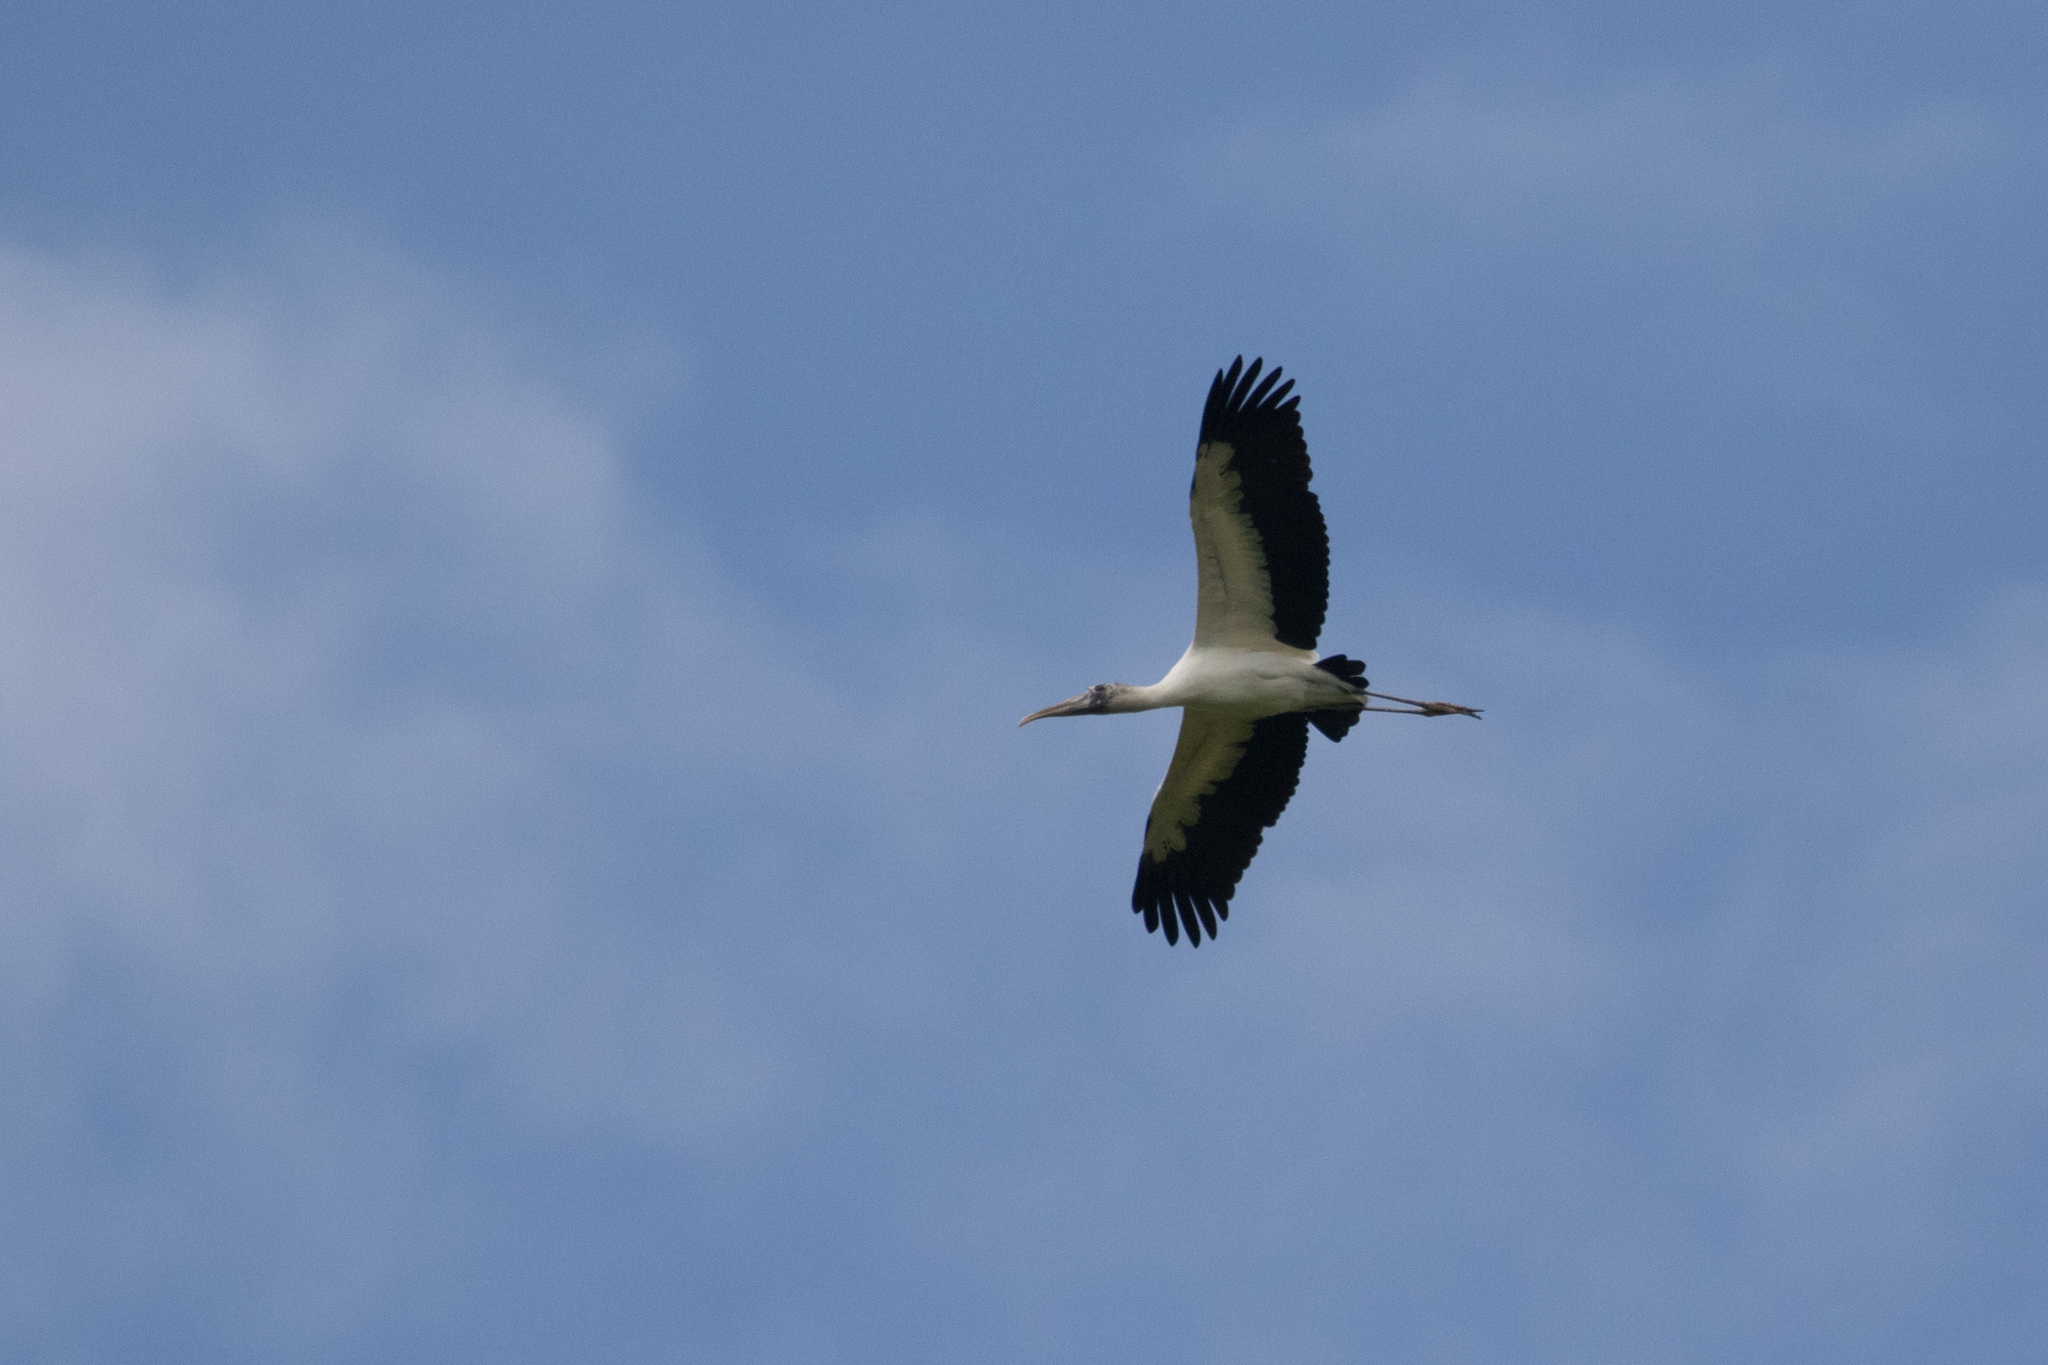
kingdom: Animalia
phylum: Chordata
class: Aves
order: Ciconiiformes
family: Ciconiidae
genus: Mycteria
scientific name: Mycteria americana
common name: Wood stork
